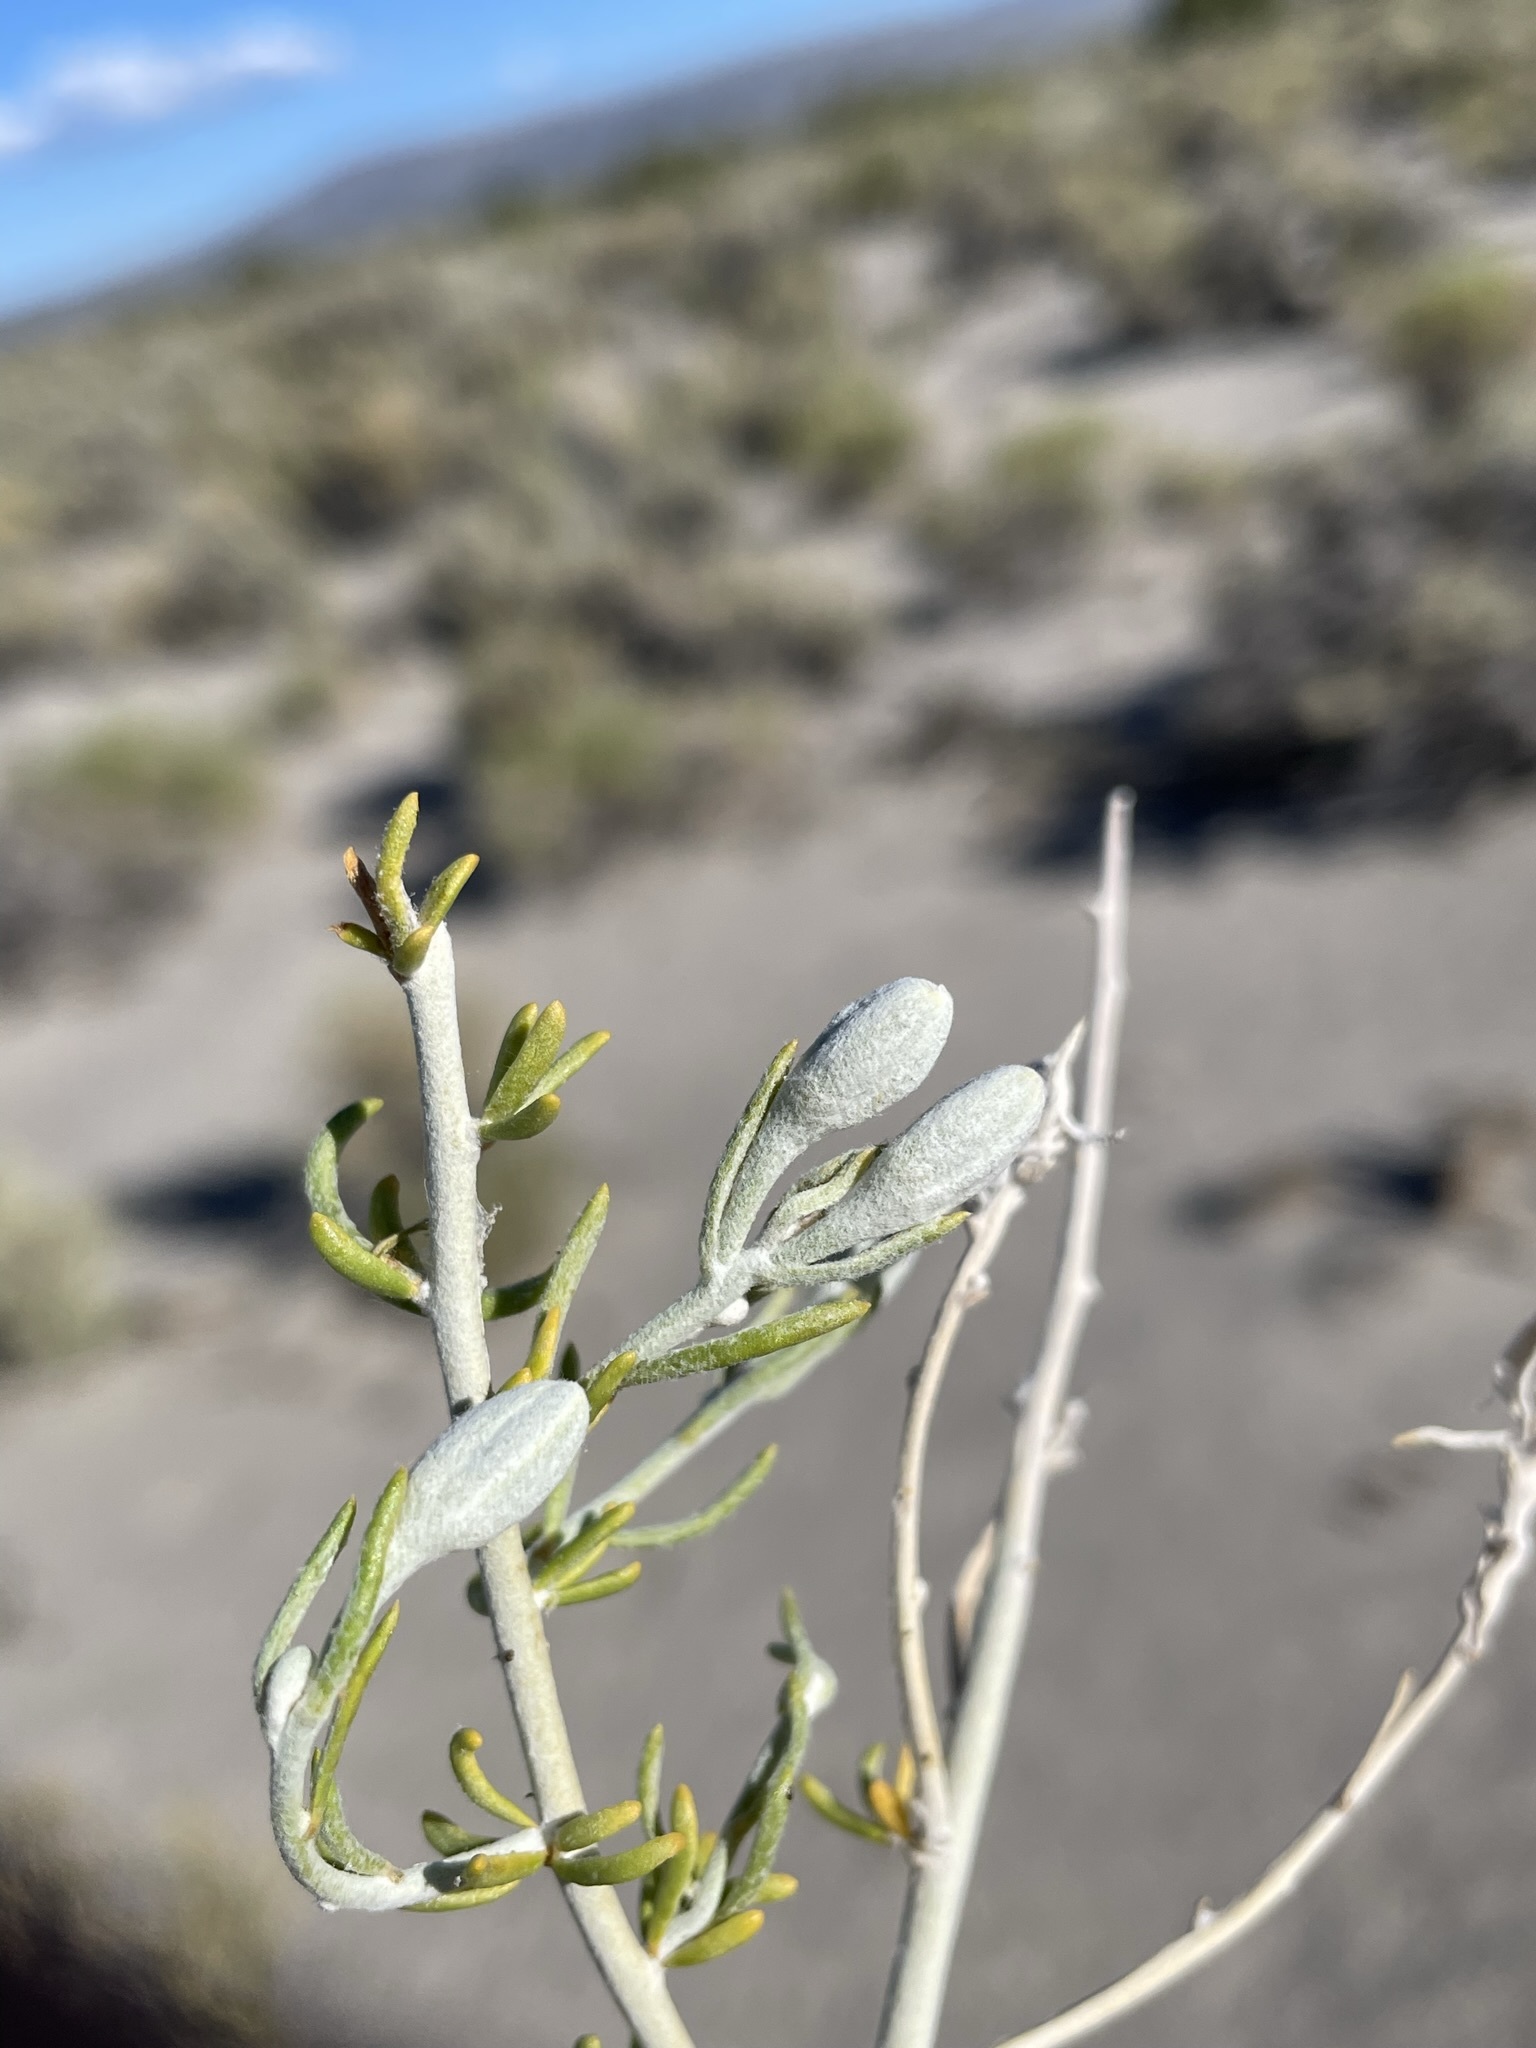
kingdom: Plantae
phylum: Tracheophyta
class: Magnoliopsida
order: Asterales
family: Asteraceae
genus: Tetradymia
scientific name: Tetradymia tetrameres
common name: Dune horsebrush
